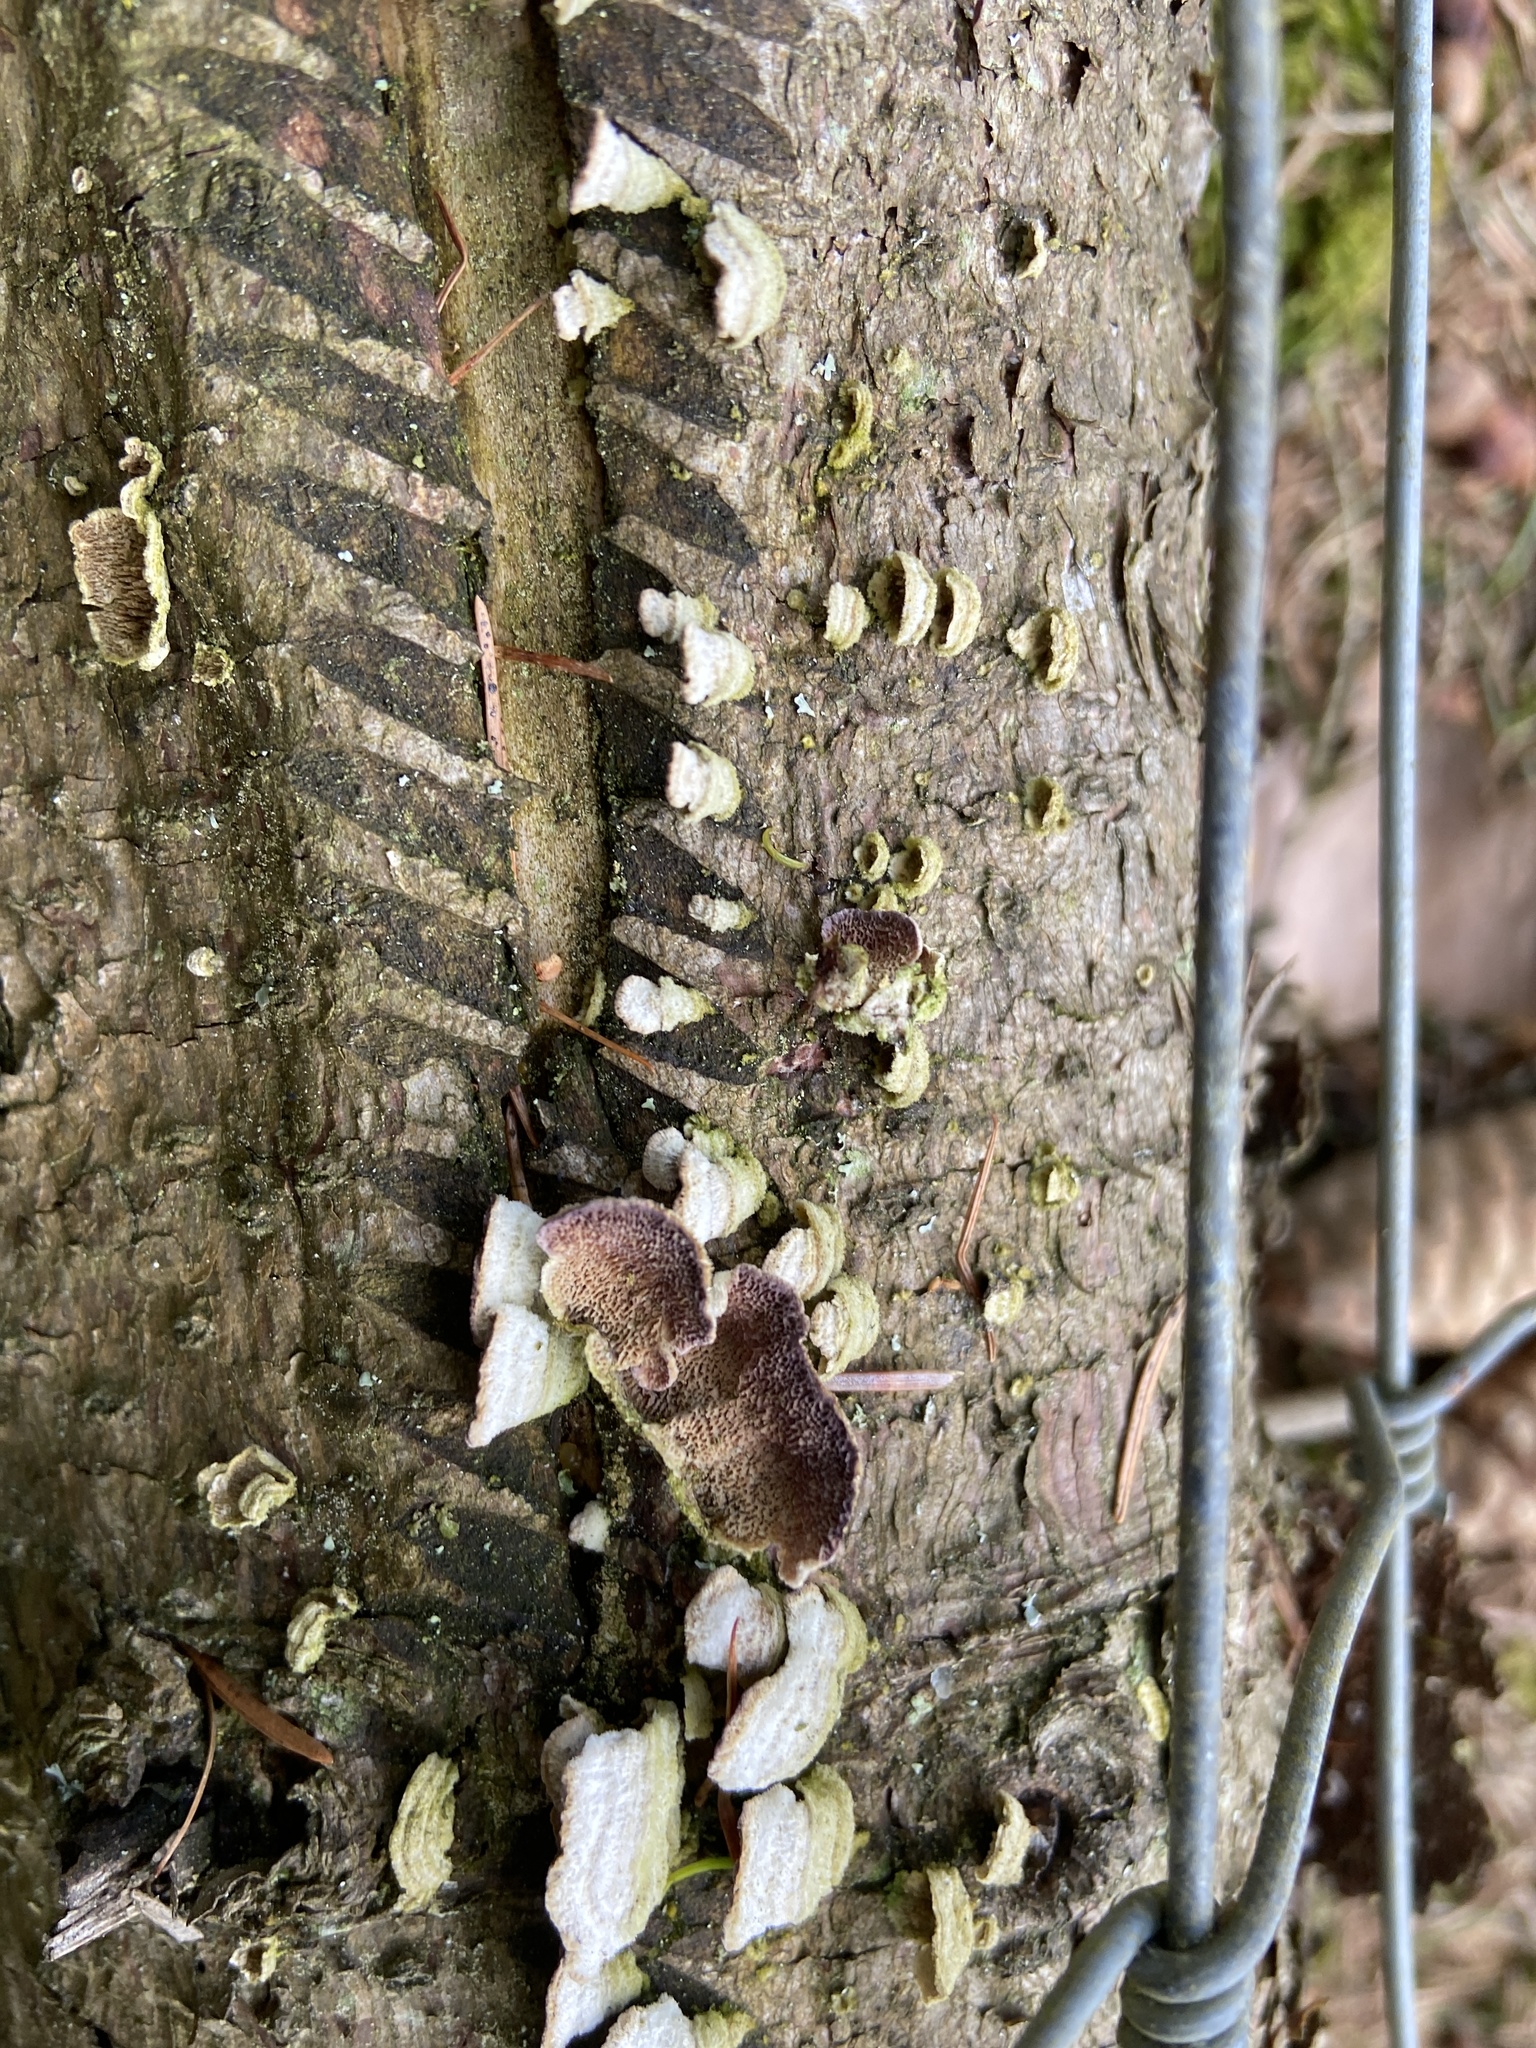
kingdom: Fungi
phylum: Basidiomycota
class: Agaricomycetes
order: Hymenochaetales
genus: Trichaptum
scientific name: Trichaptum abietinum
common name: Purplepore bracket
